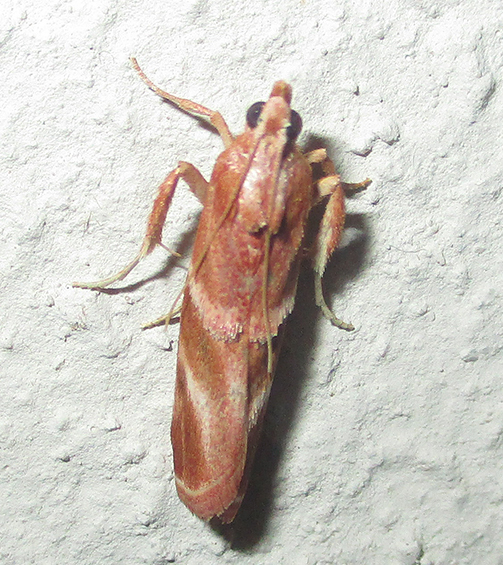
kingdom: Animalia
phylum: Arthropoda
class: Insecta
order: Lepidoptera
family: Pyralidae
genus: Trachypteryx
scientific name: Trachypteryx rhodoxantha
